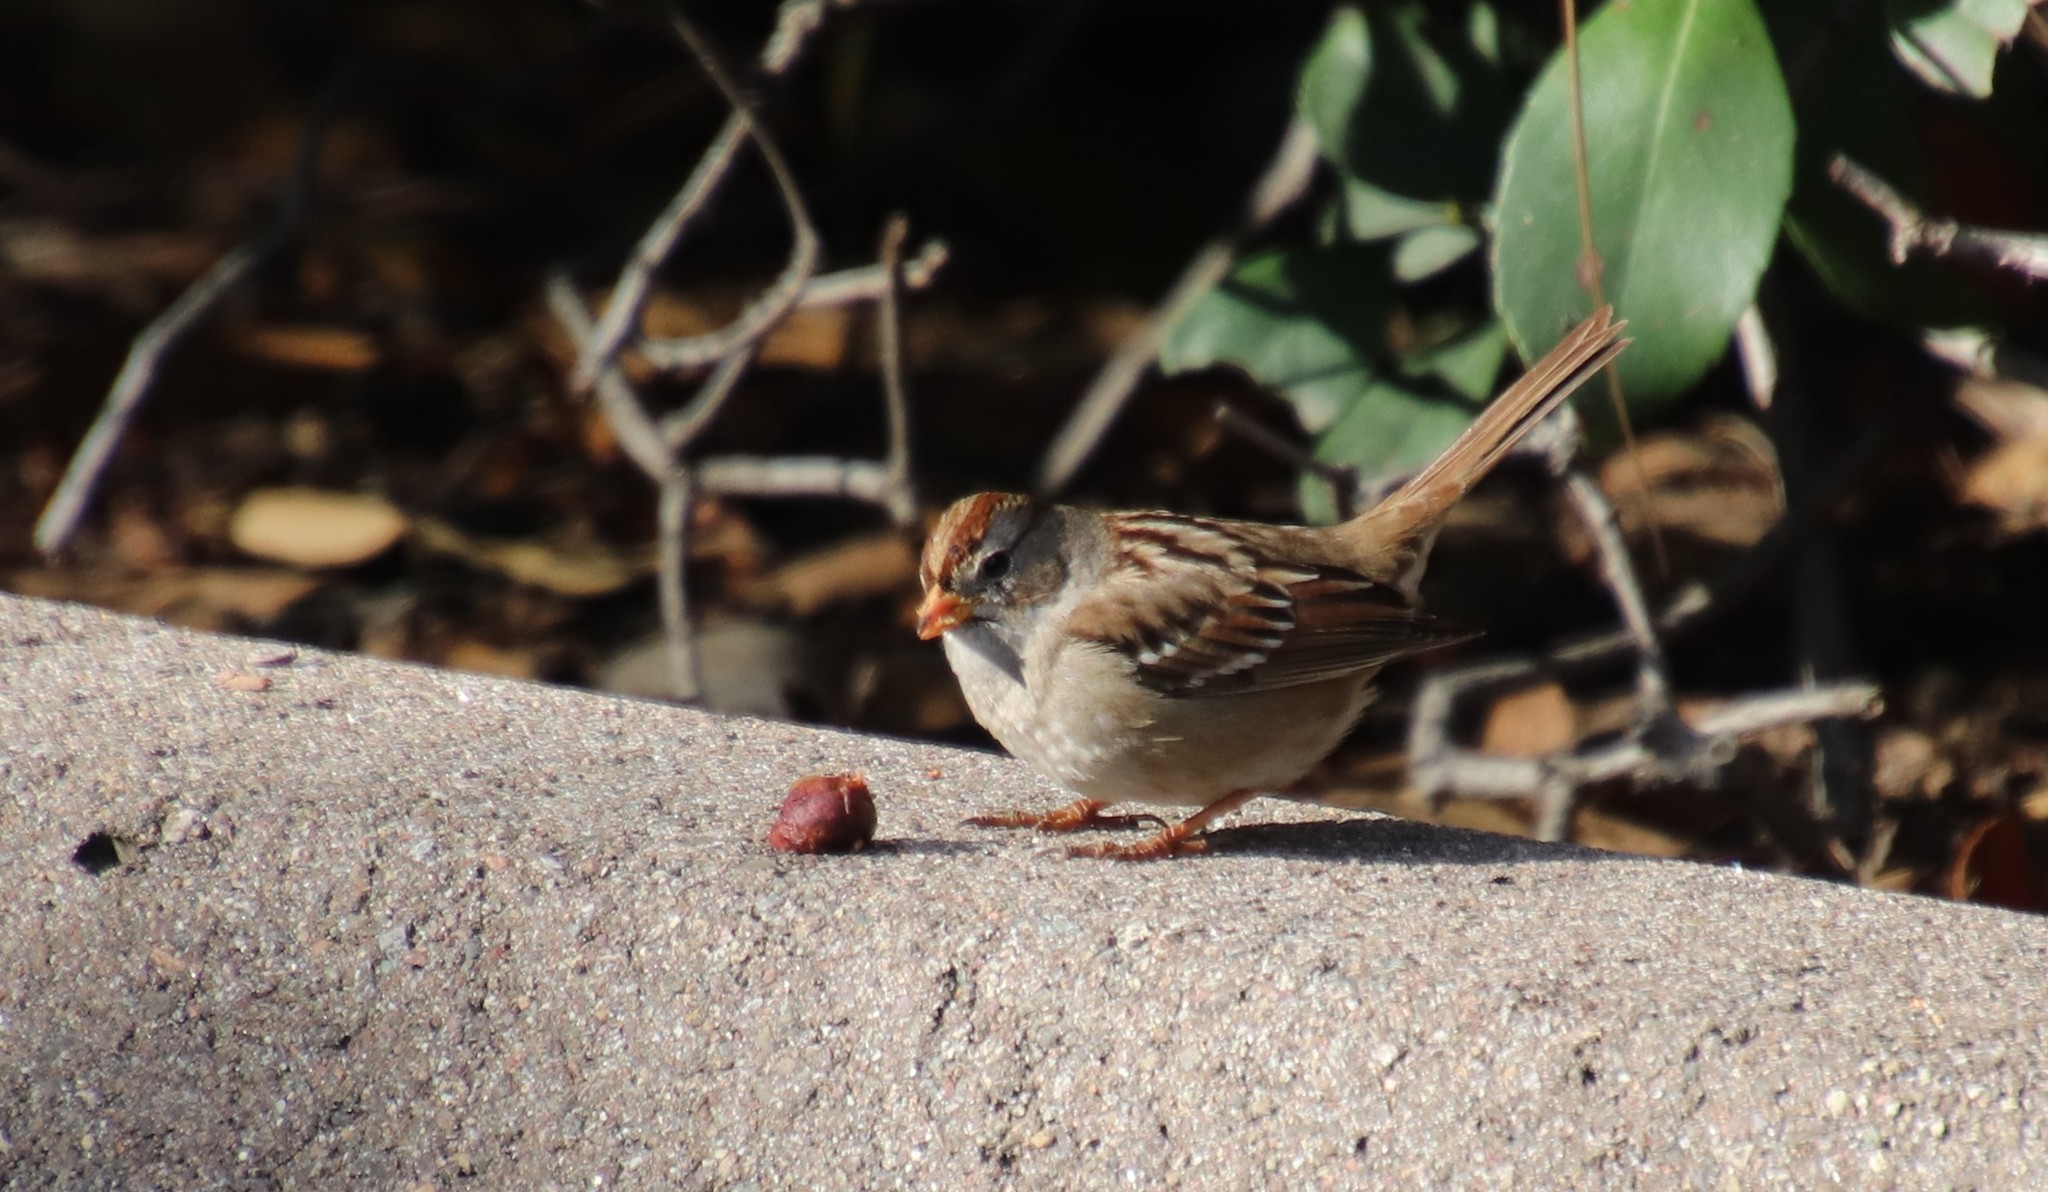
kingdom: Animalia
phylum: Chordata
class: Aves
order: Passeriformes
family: Passerellidae
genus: Zonotrichia
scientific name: Zonotrichia leucophrys
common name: White-crowned sparrow
